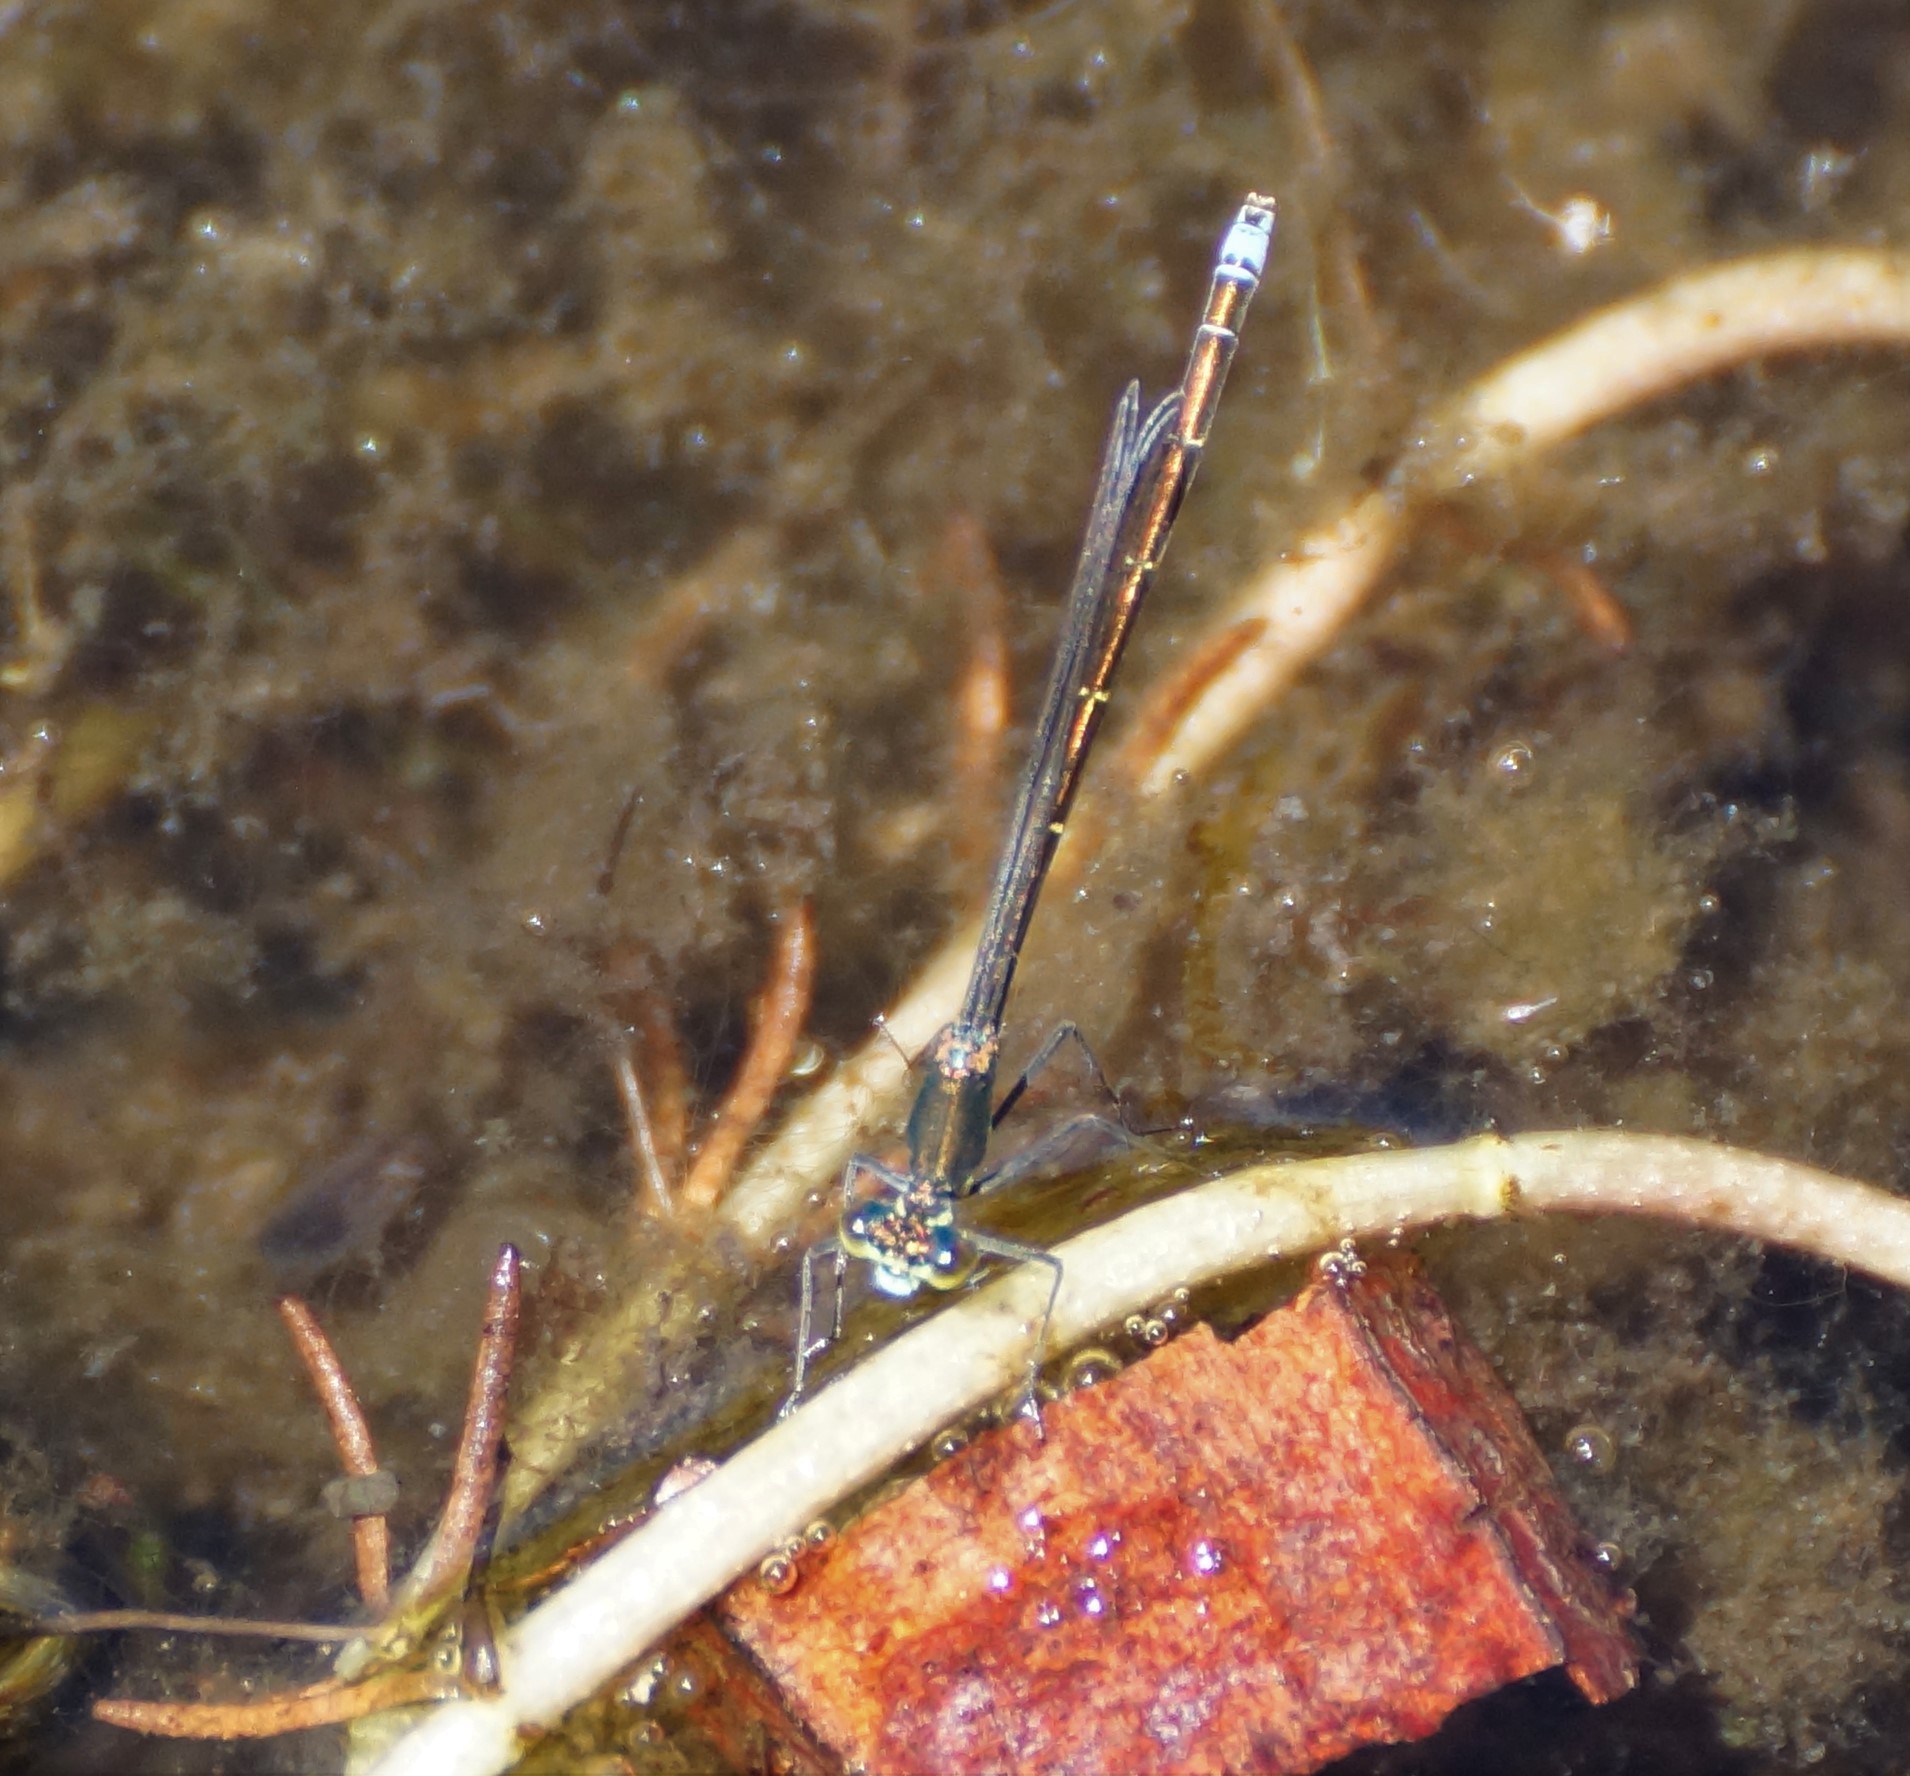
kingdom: Animalia
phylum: Arthropoda
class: Insecta
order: Odonata
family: Coenagrionidae
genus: Austrocnemis
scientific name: Austrocnemis splendida
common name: Splendid longlegs
